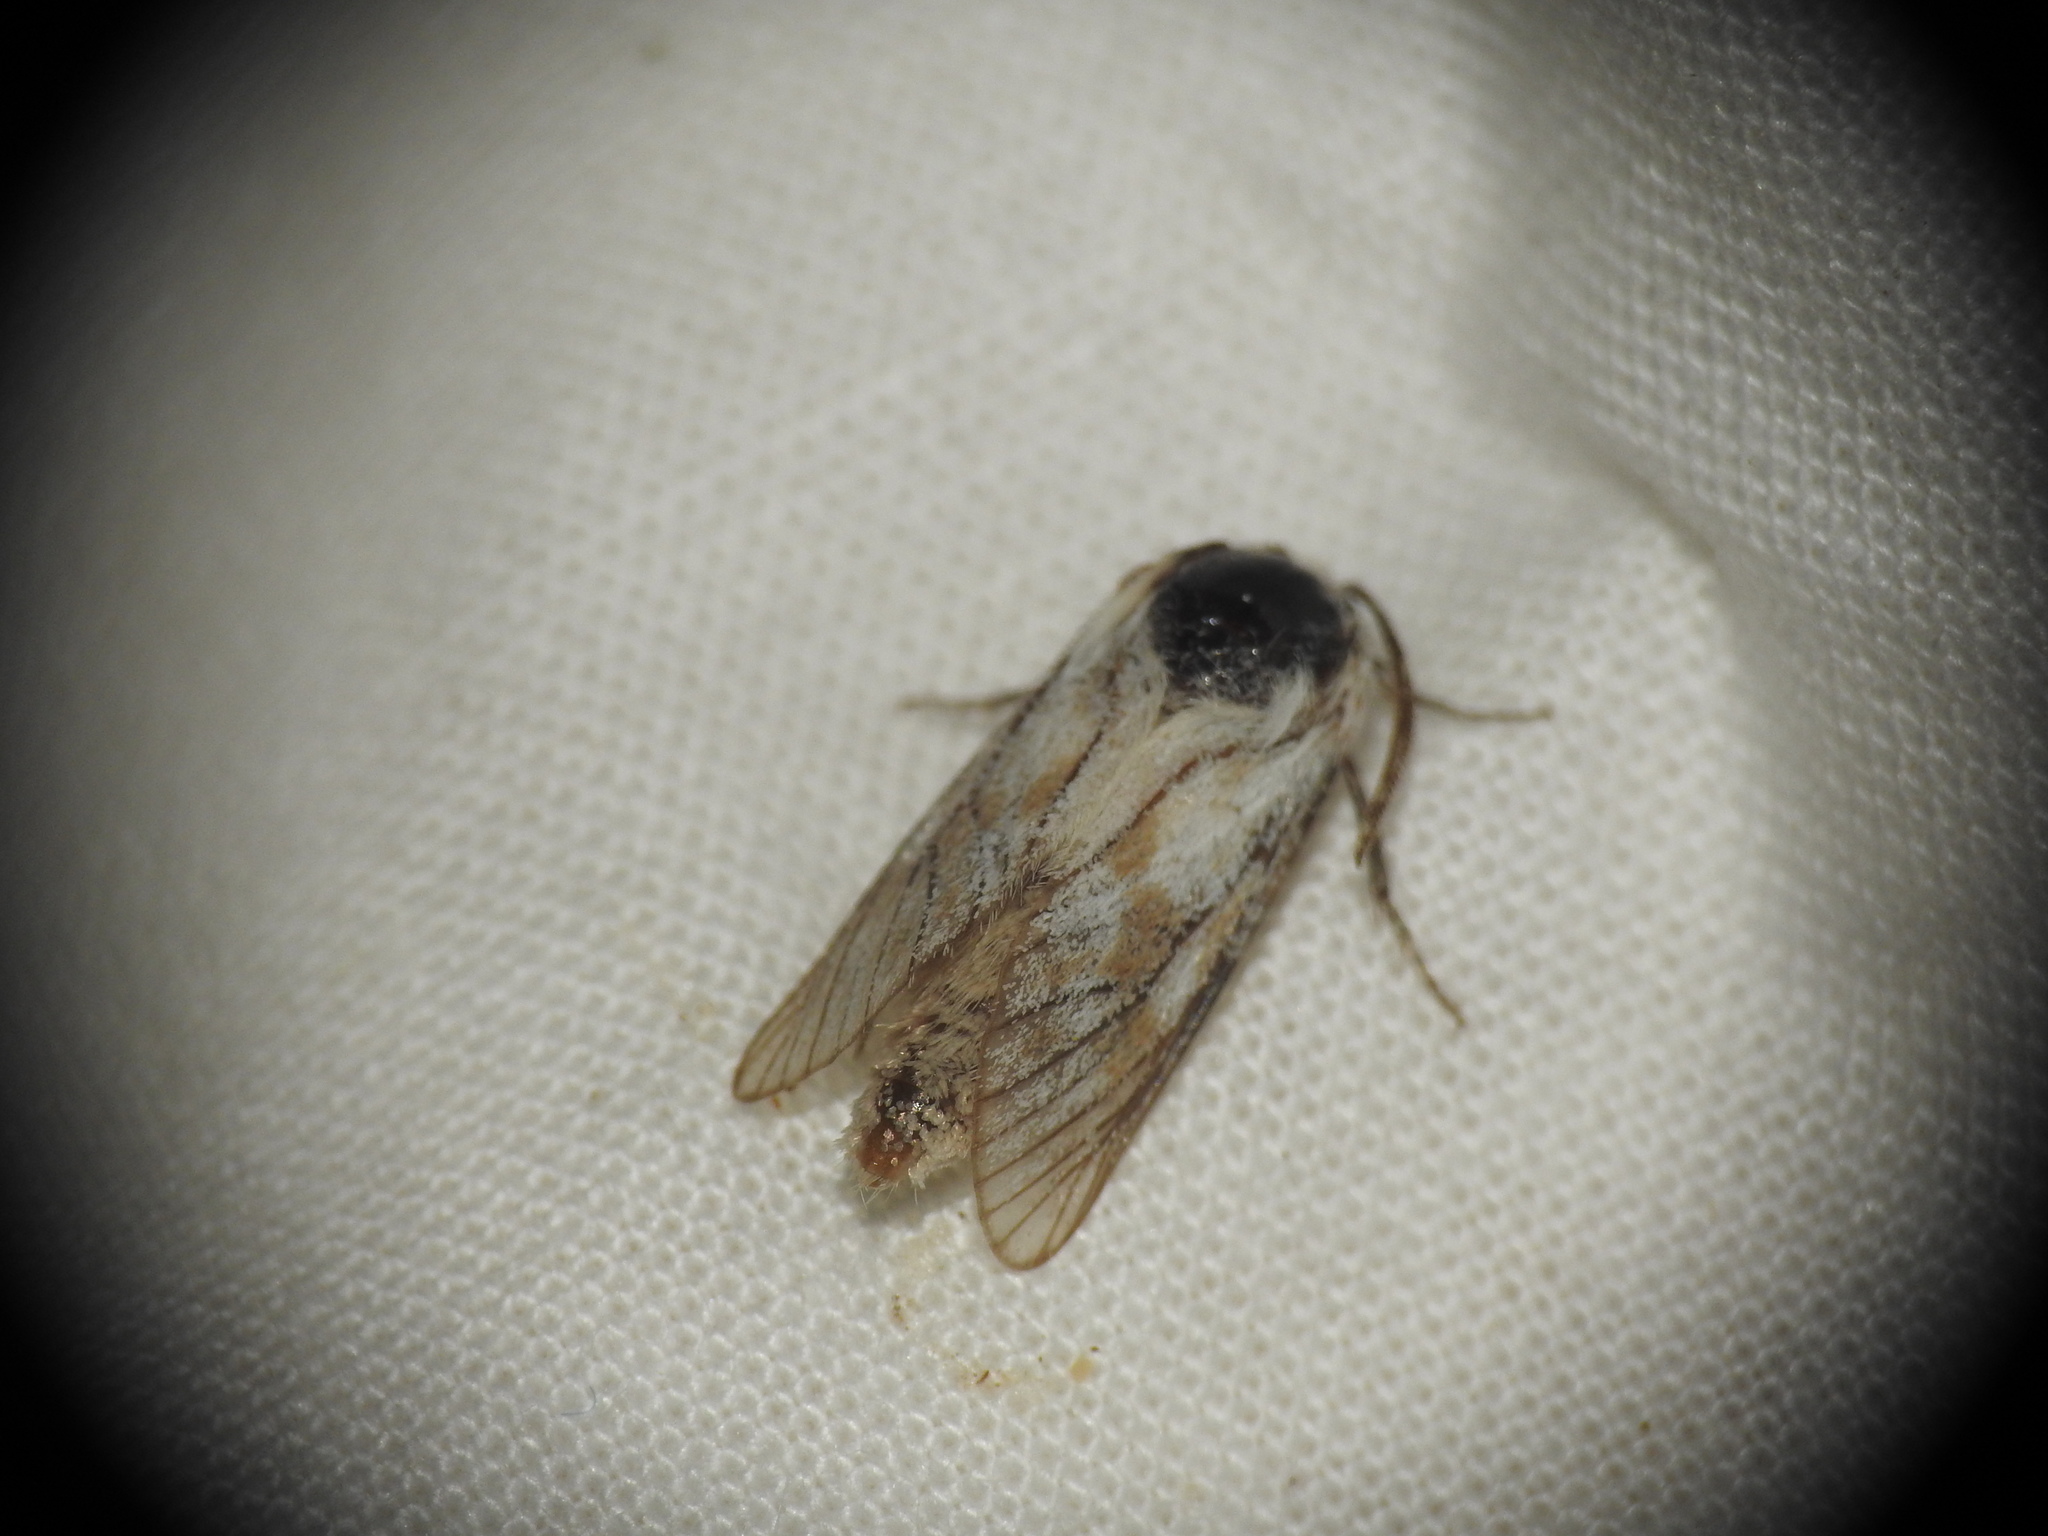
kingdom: Animalia
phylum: Arthropoda
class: Insecta
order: Lepidoptera
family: Cossidae
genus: Dyspessa
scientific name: Dyspessa ulula
